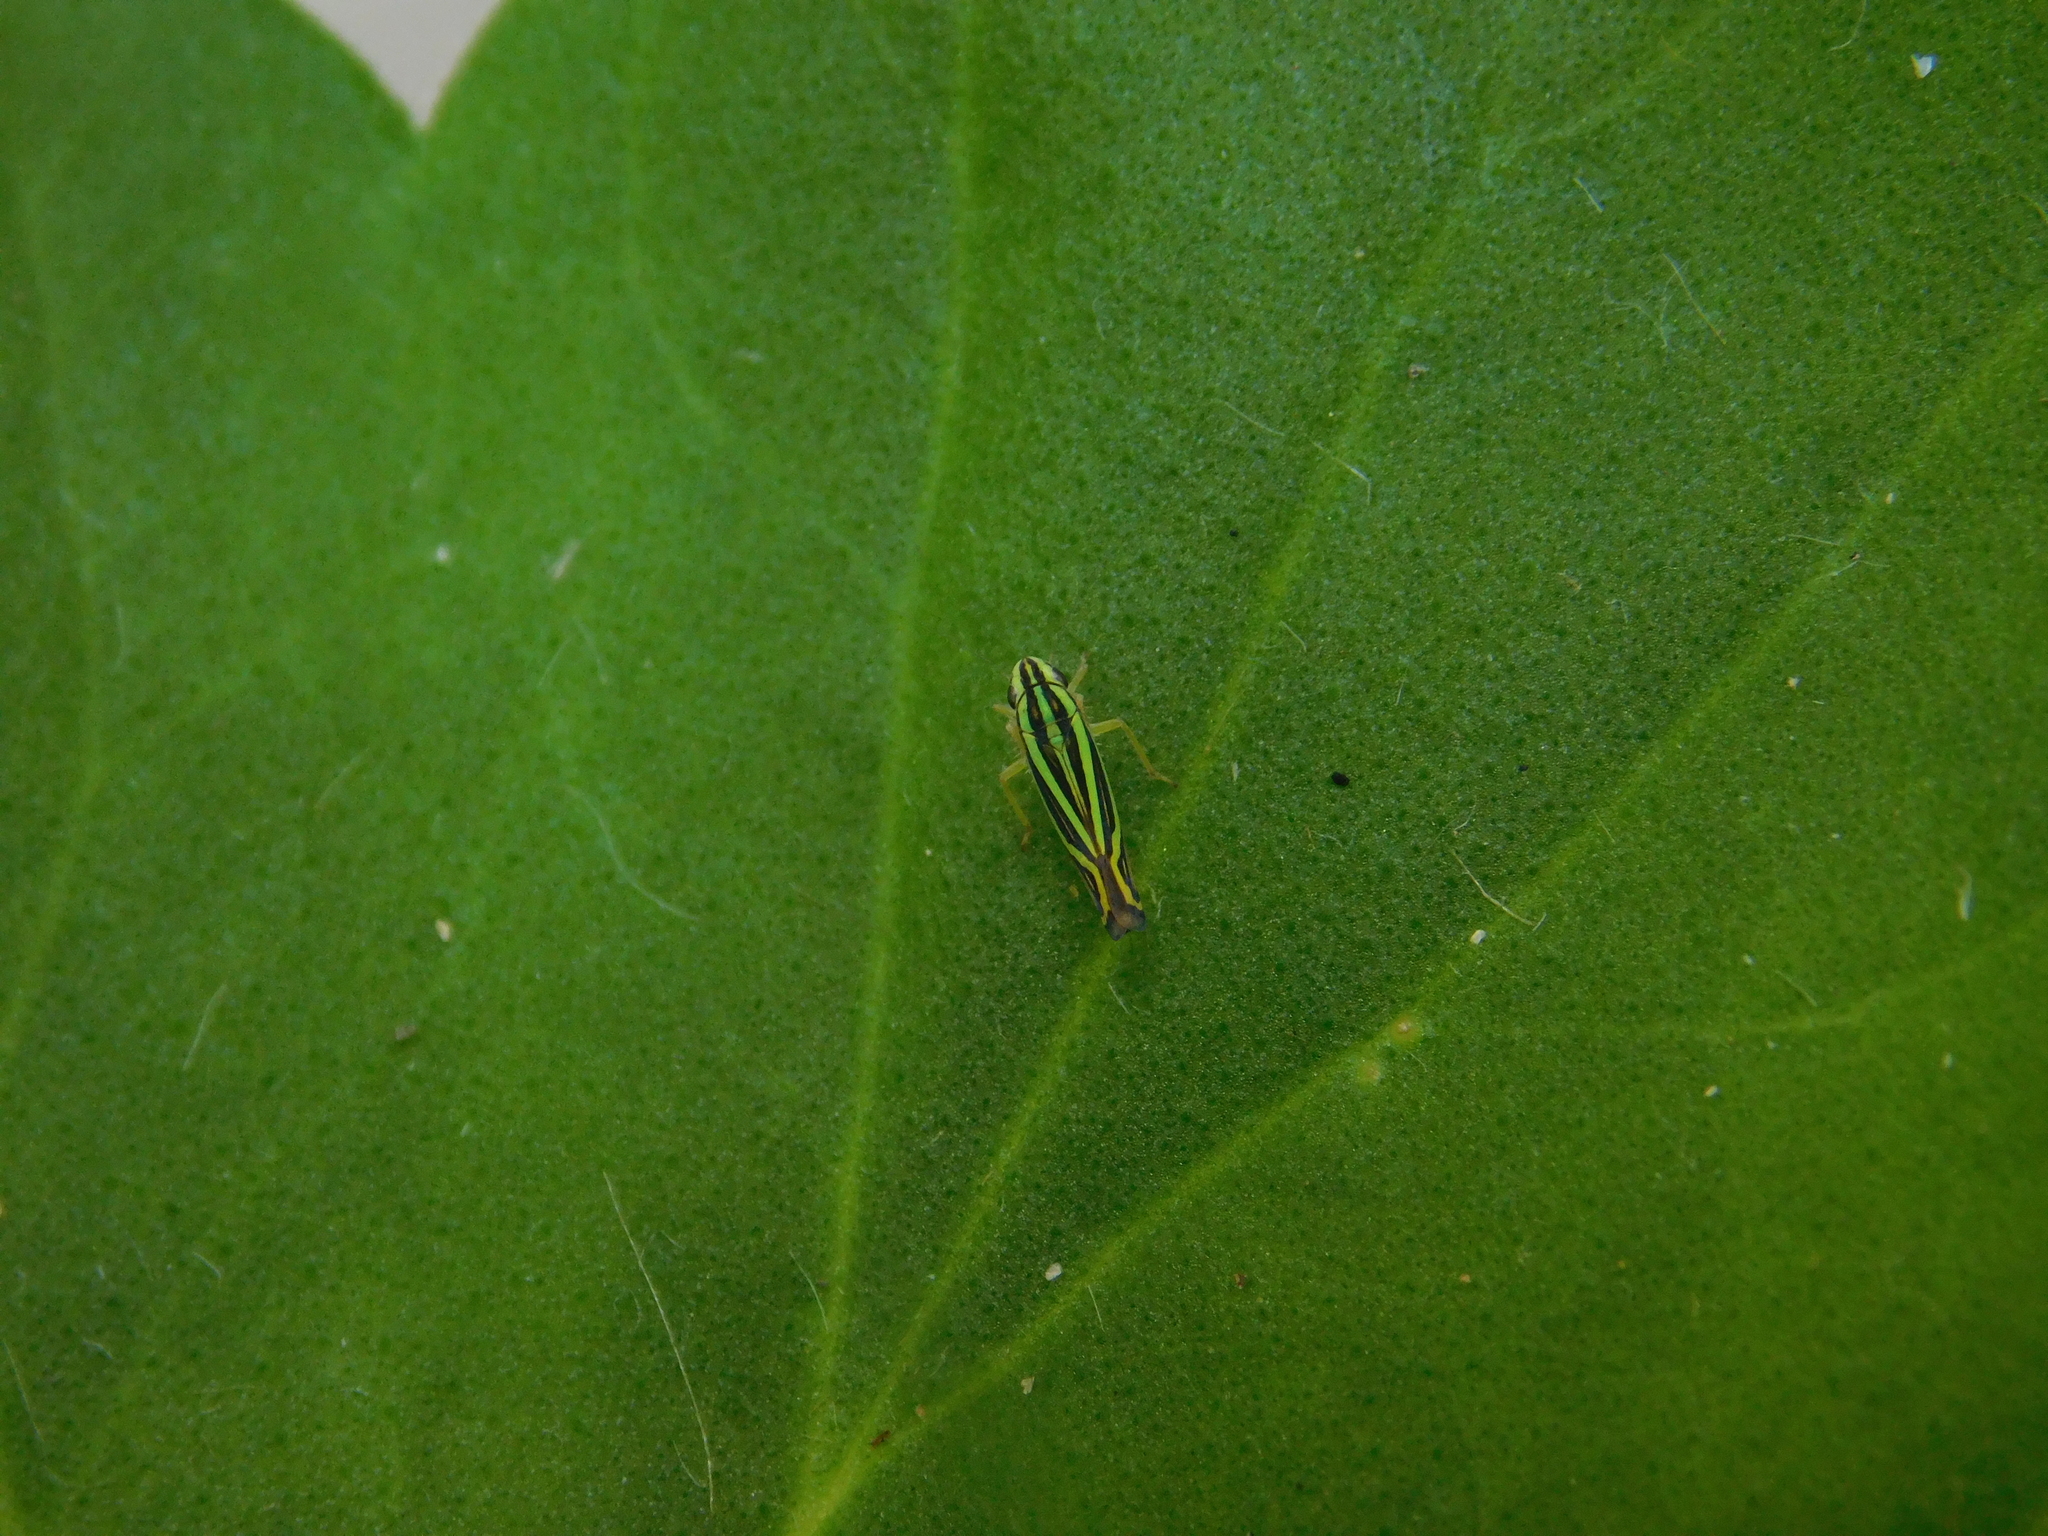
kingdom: Animalia
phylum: Arthropoda
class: Insecta
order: Hemiptera
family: Cicadellidae
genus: Sibovia
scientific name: Sibovia sagata
